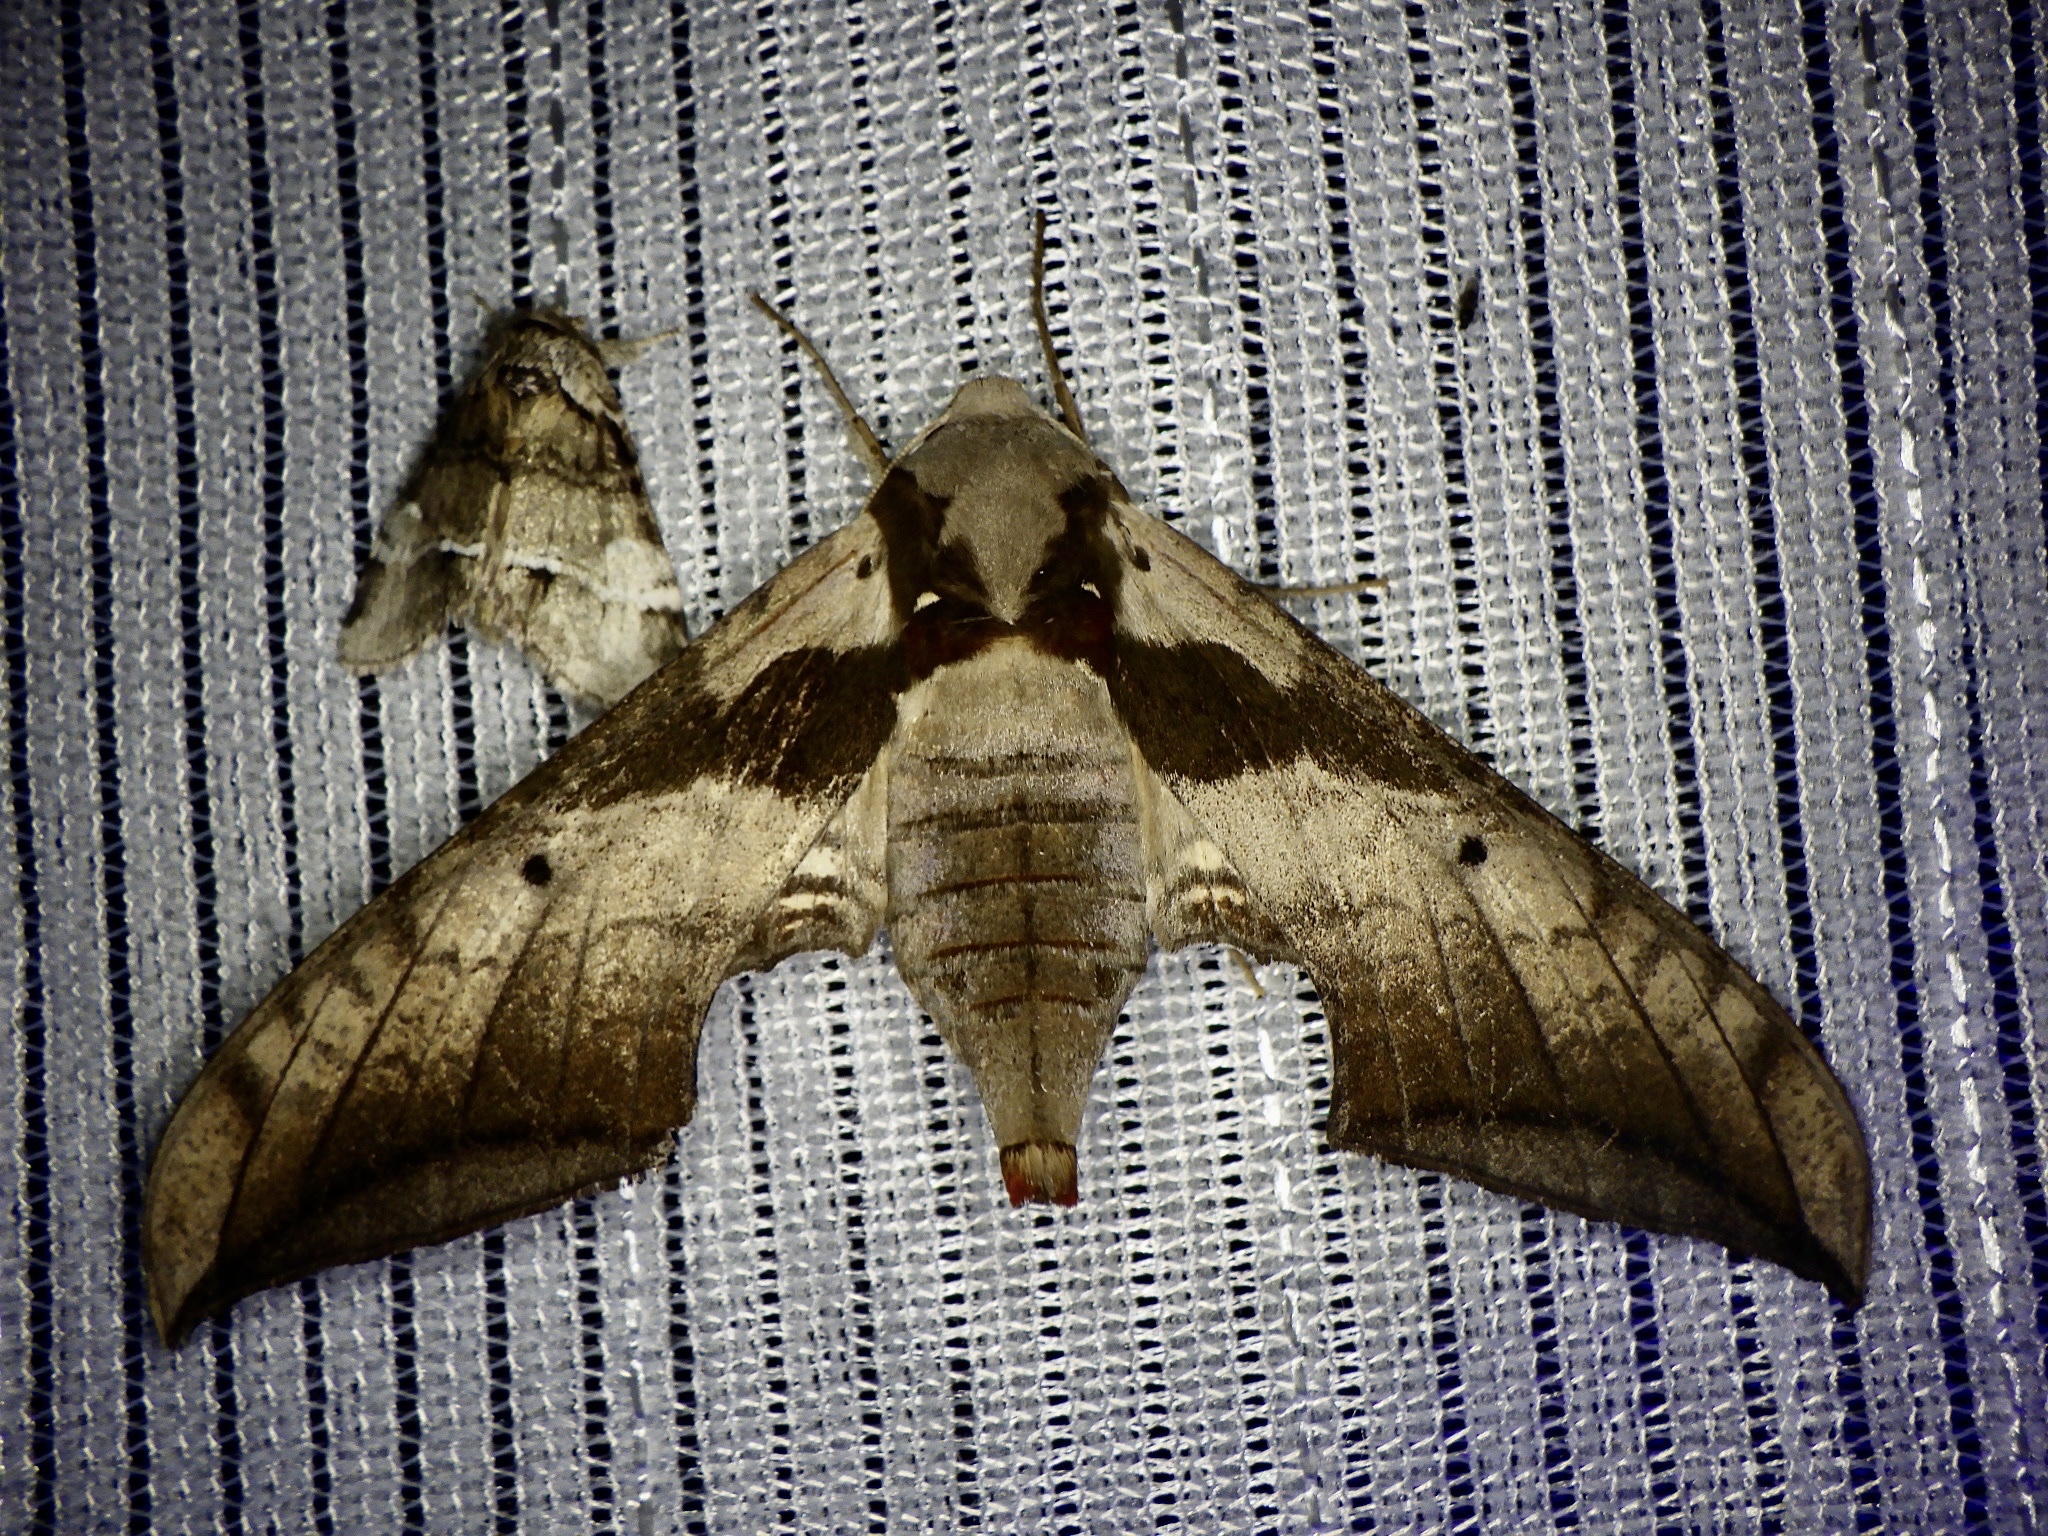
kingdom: Animalia
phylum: Arthropoda
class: Insecta
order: Lepidoptera
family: Sphingidae
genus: Ambulyx
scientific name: Ambulyx japonica
